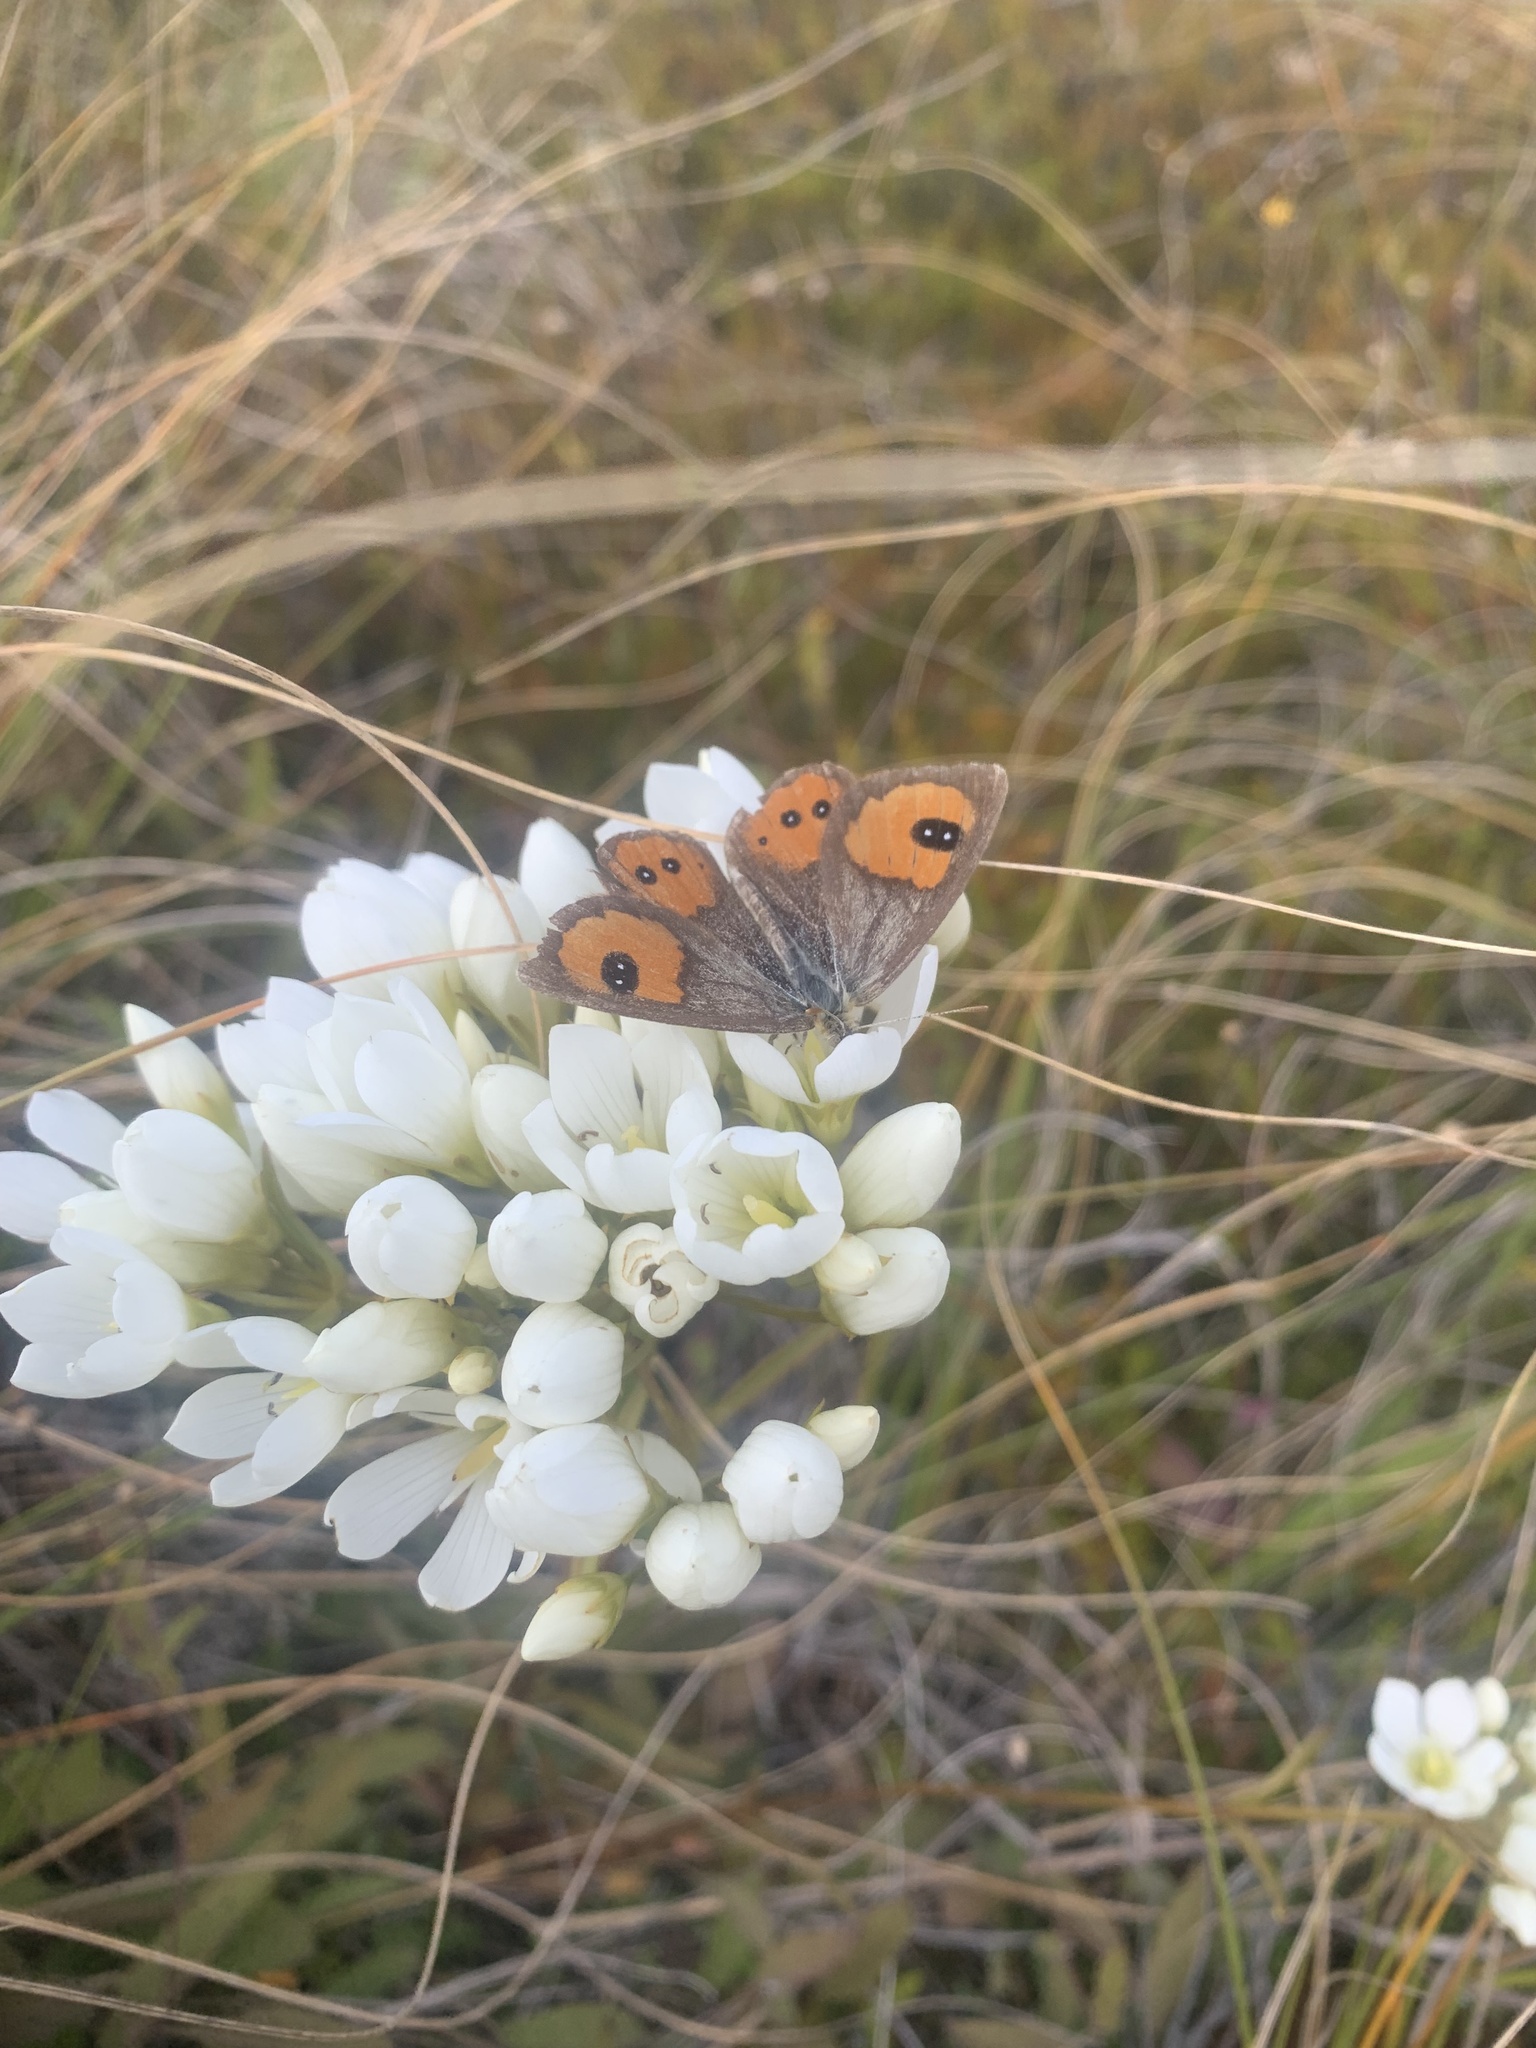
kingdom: Animalia
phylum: Arthropoda
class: Insecta
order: Lepidoptera
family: Nymphalidae
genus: Argyrophenga
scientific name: Argyrophenga antipodum
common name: Common tussock butterfly
